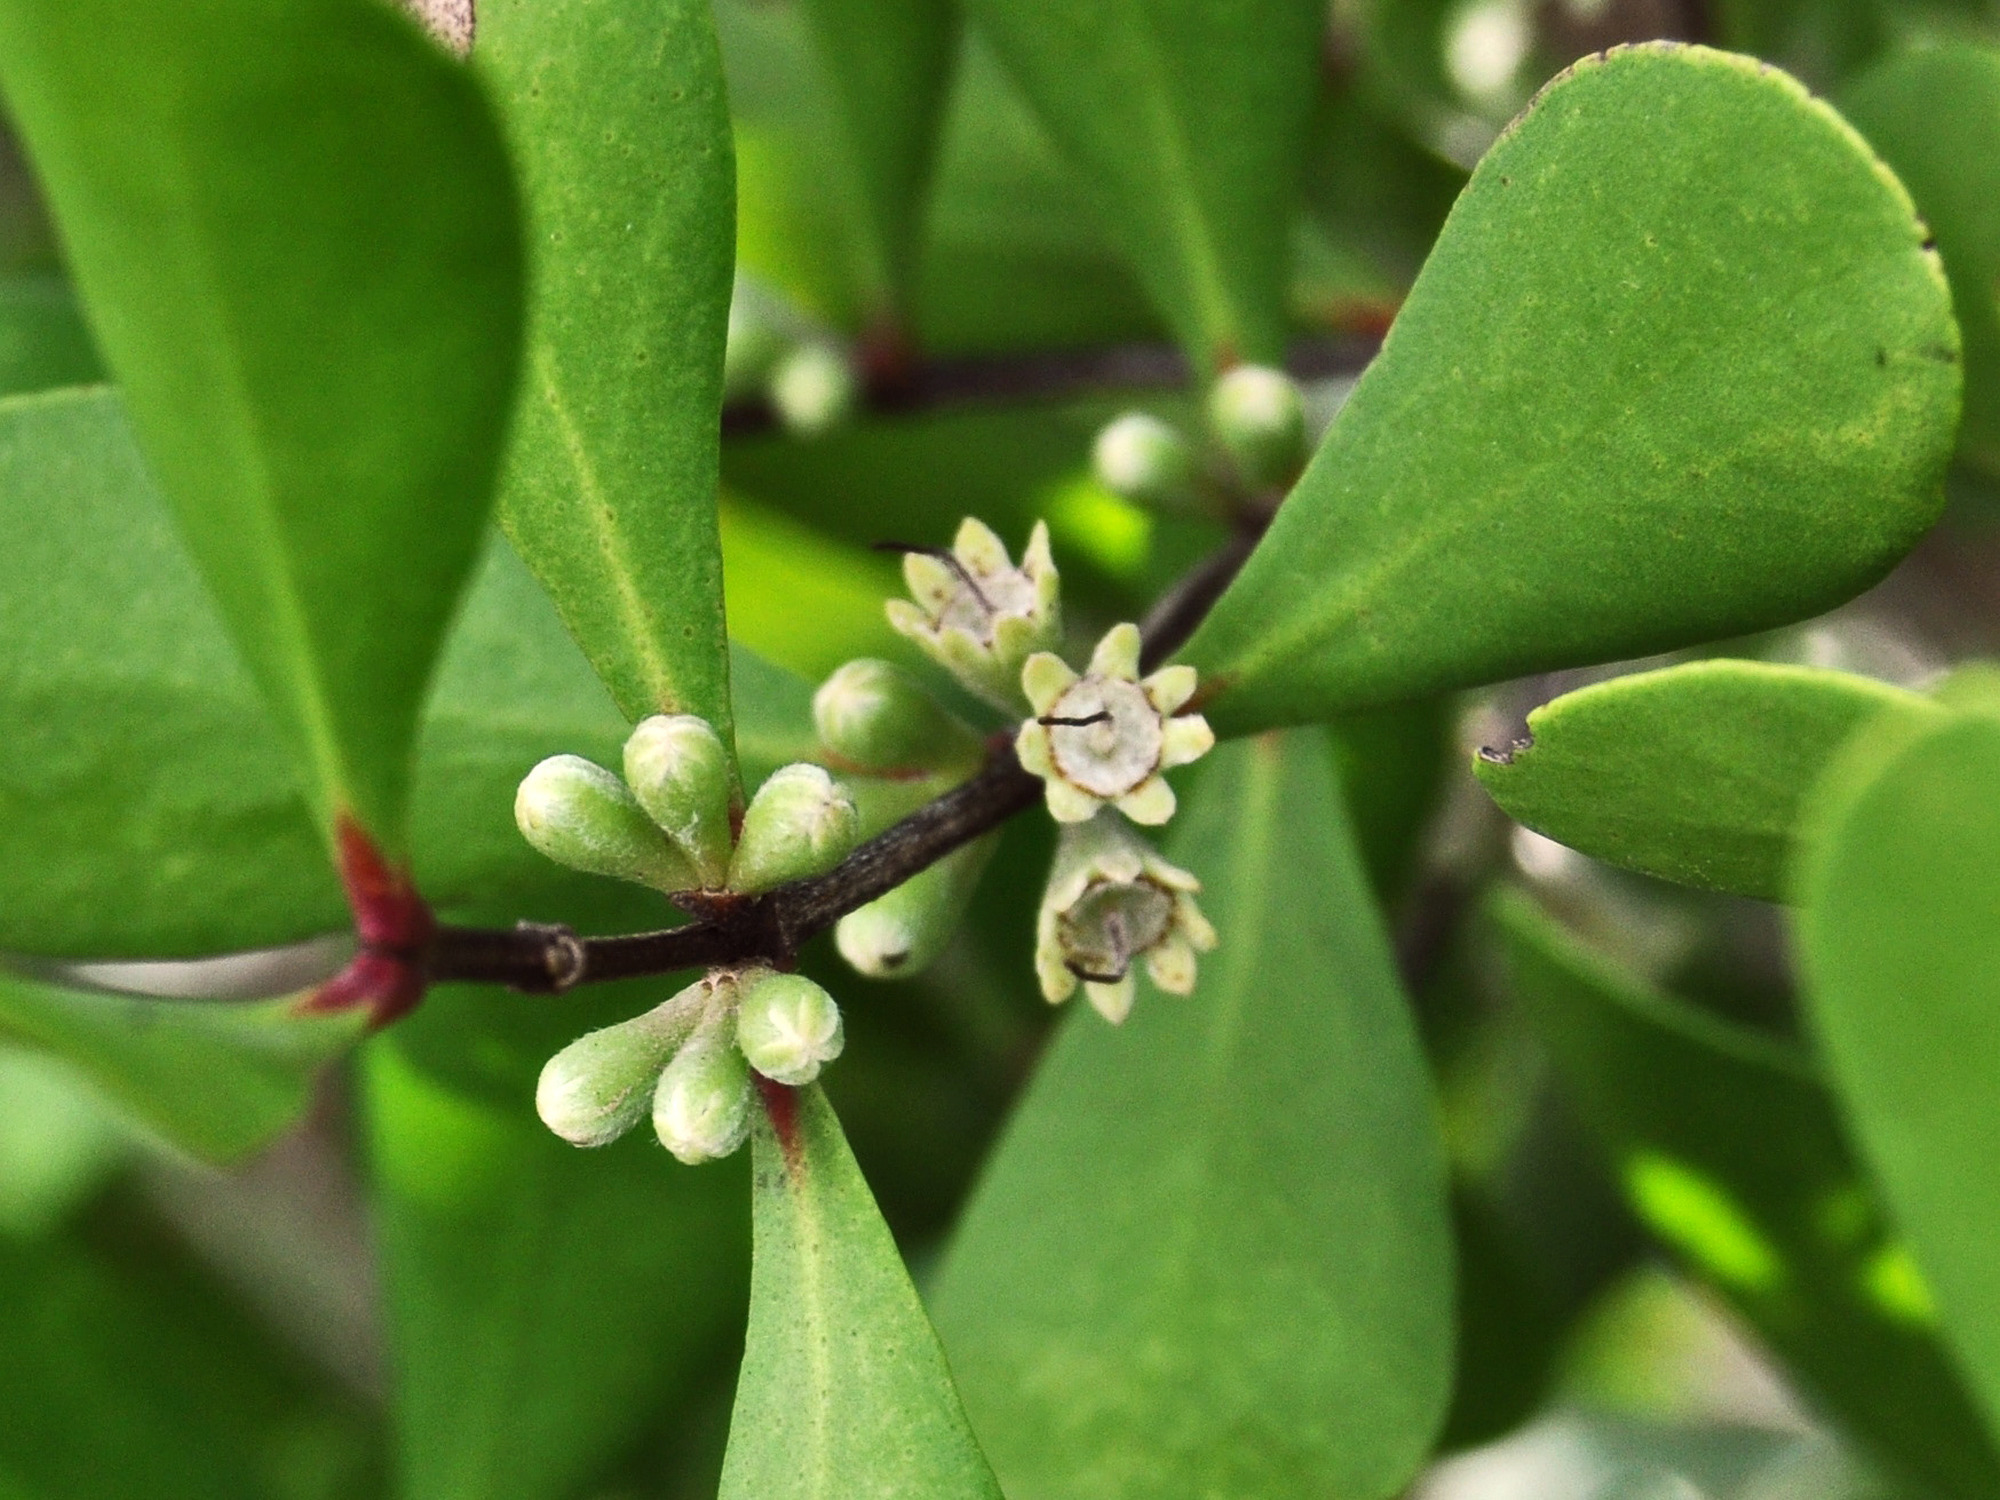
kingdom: Plantae
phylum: Tracheophyta
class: Magnoliopsida
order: Myrtales
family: Myrtaceae
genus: Osbornia
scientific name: Osbornia octodonta
